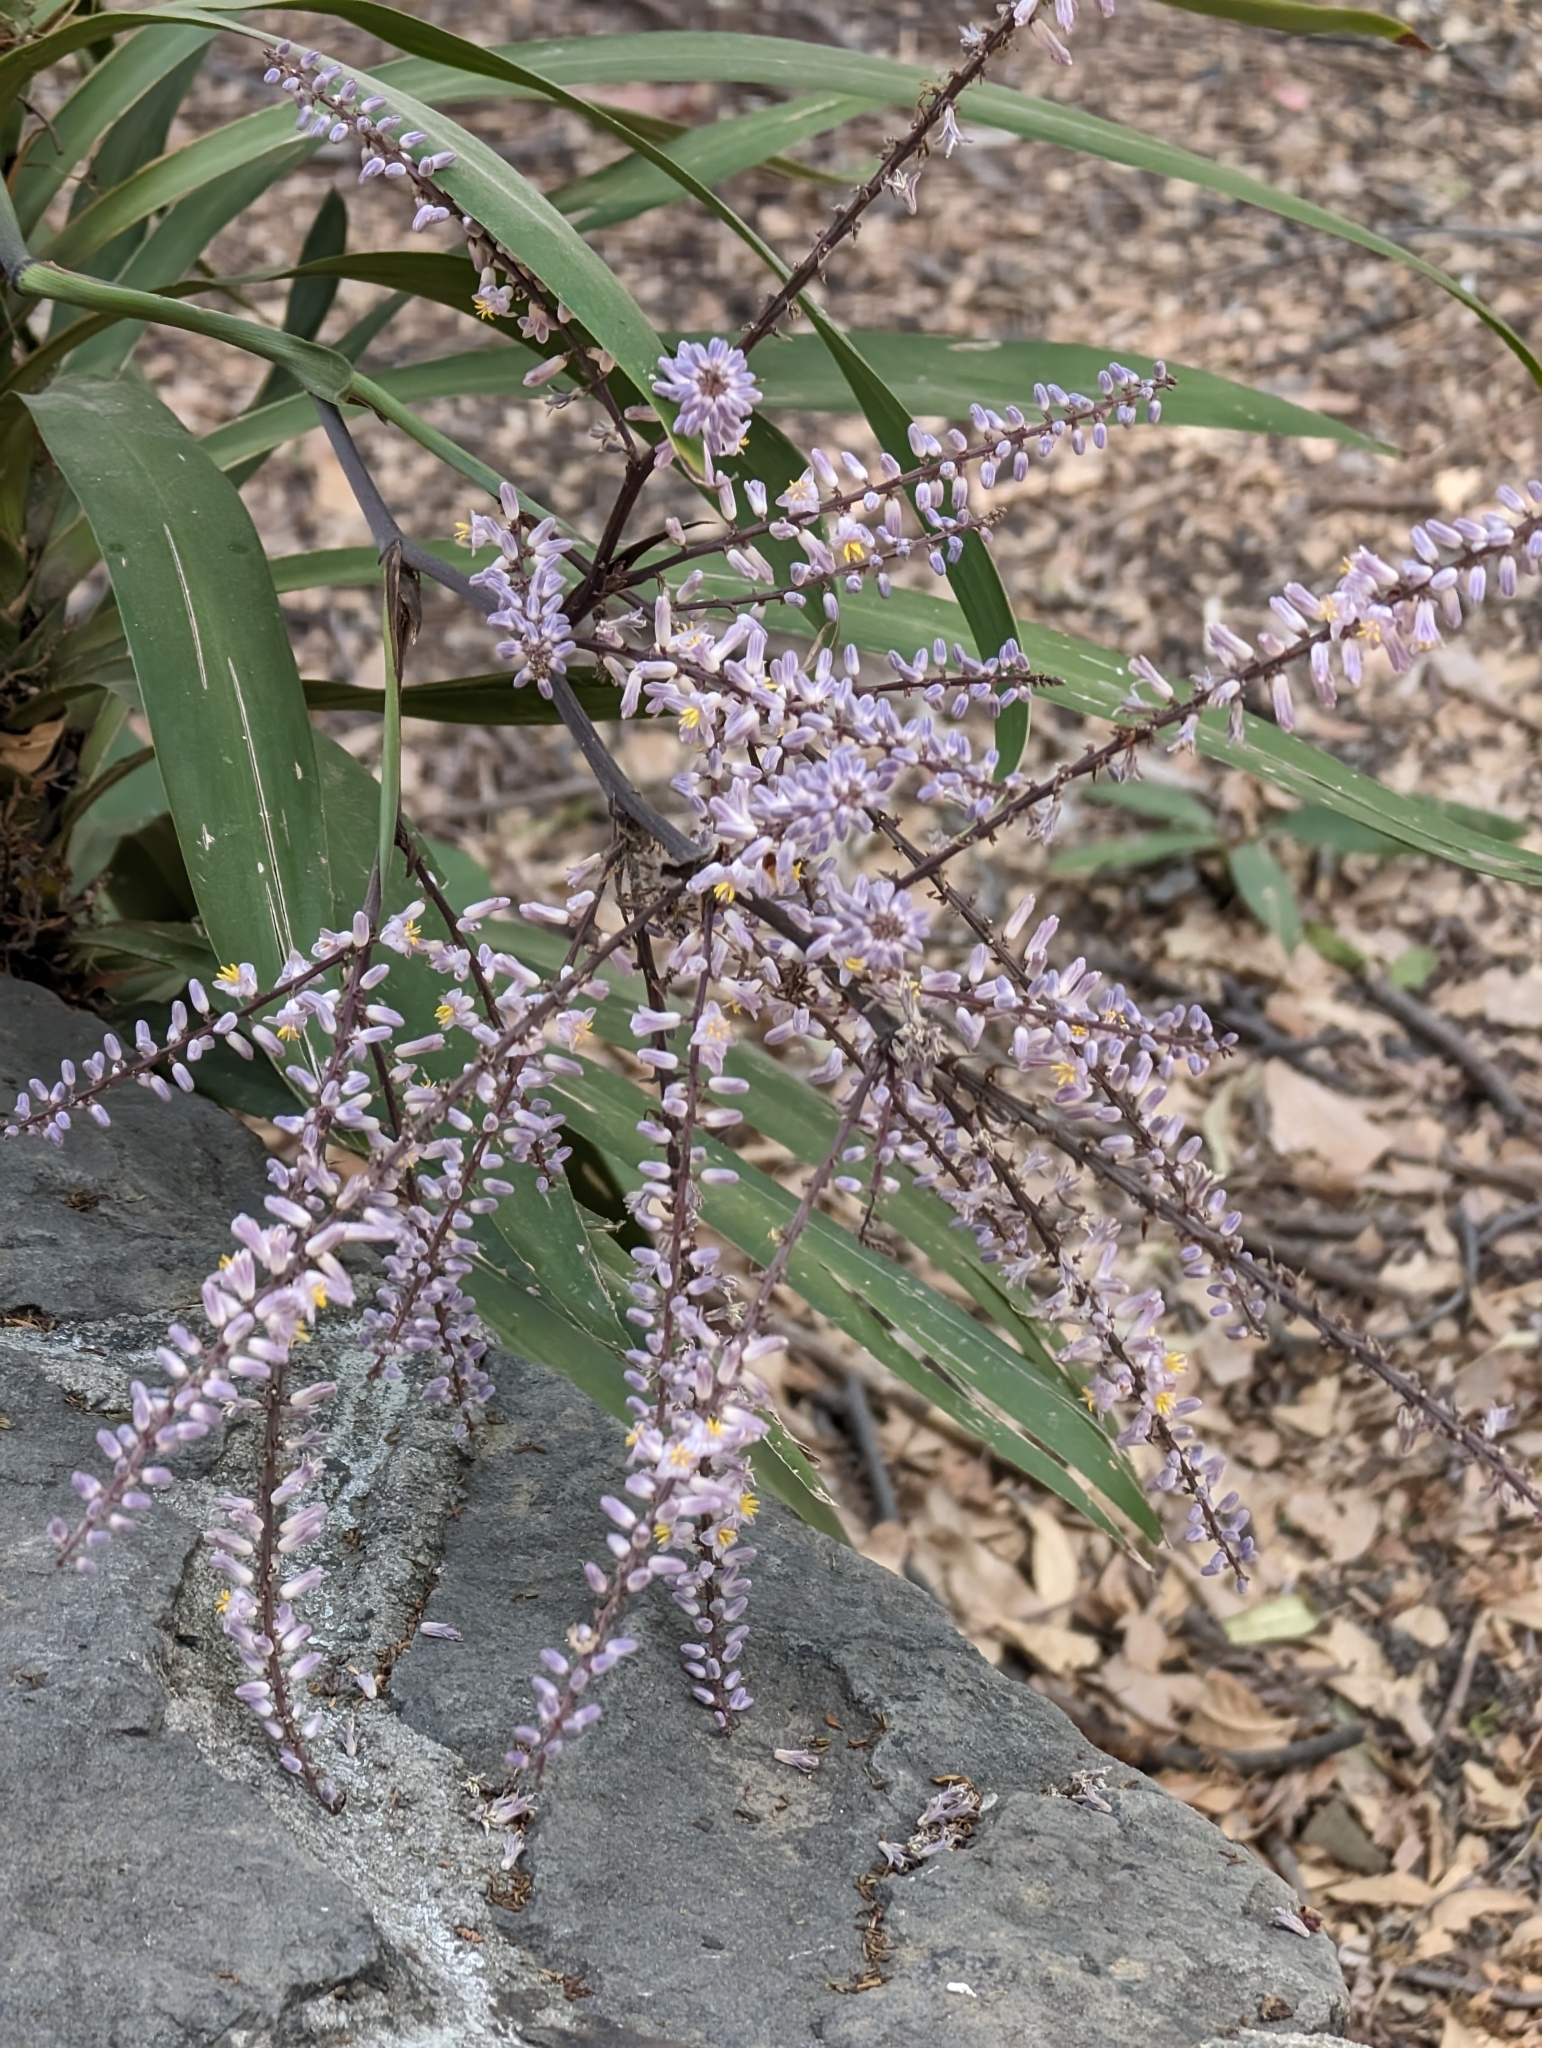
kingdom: Plantae
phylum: Tracheophyta
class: Liliopsida
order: Asparagales
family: Asparagaceae
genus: Cordyline
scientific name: Cordyline fruticosa
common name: Good-luck-plant
